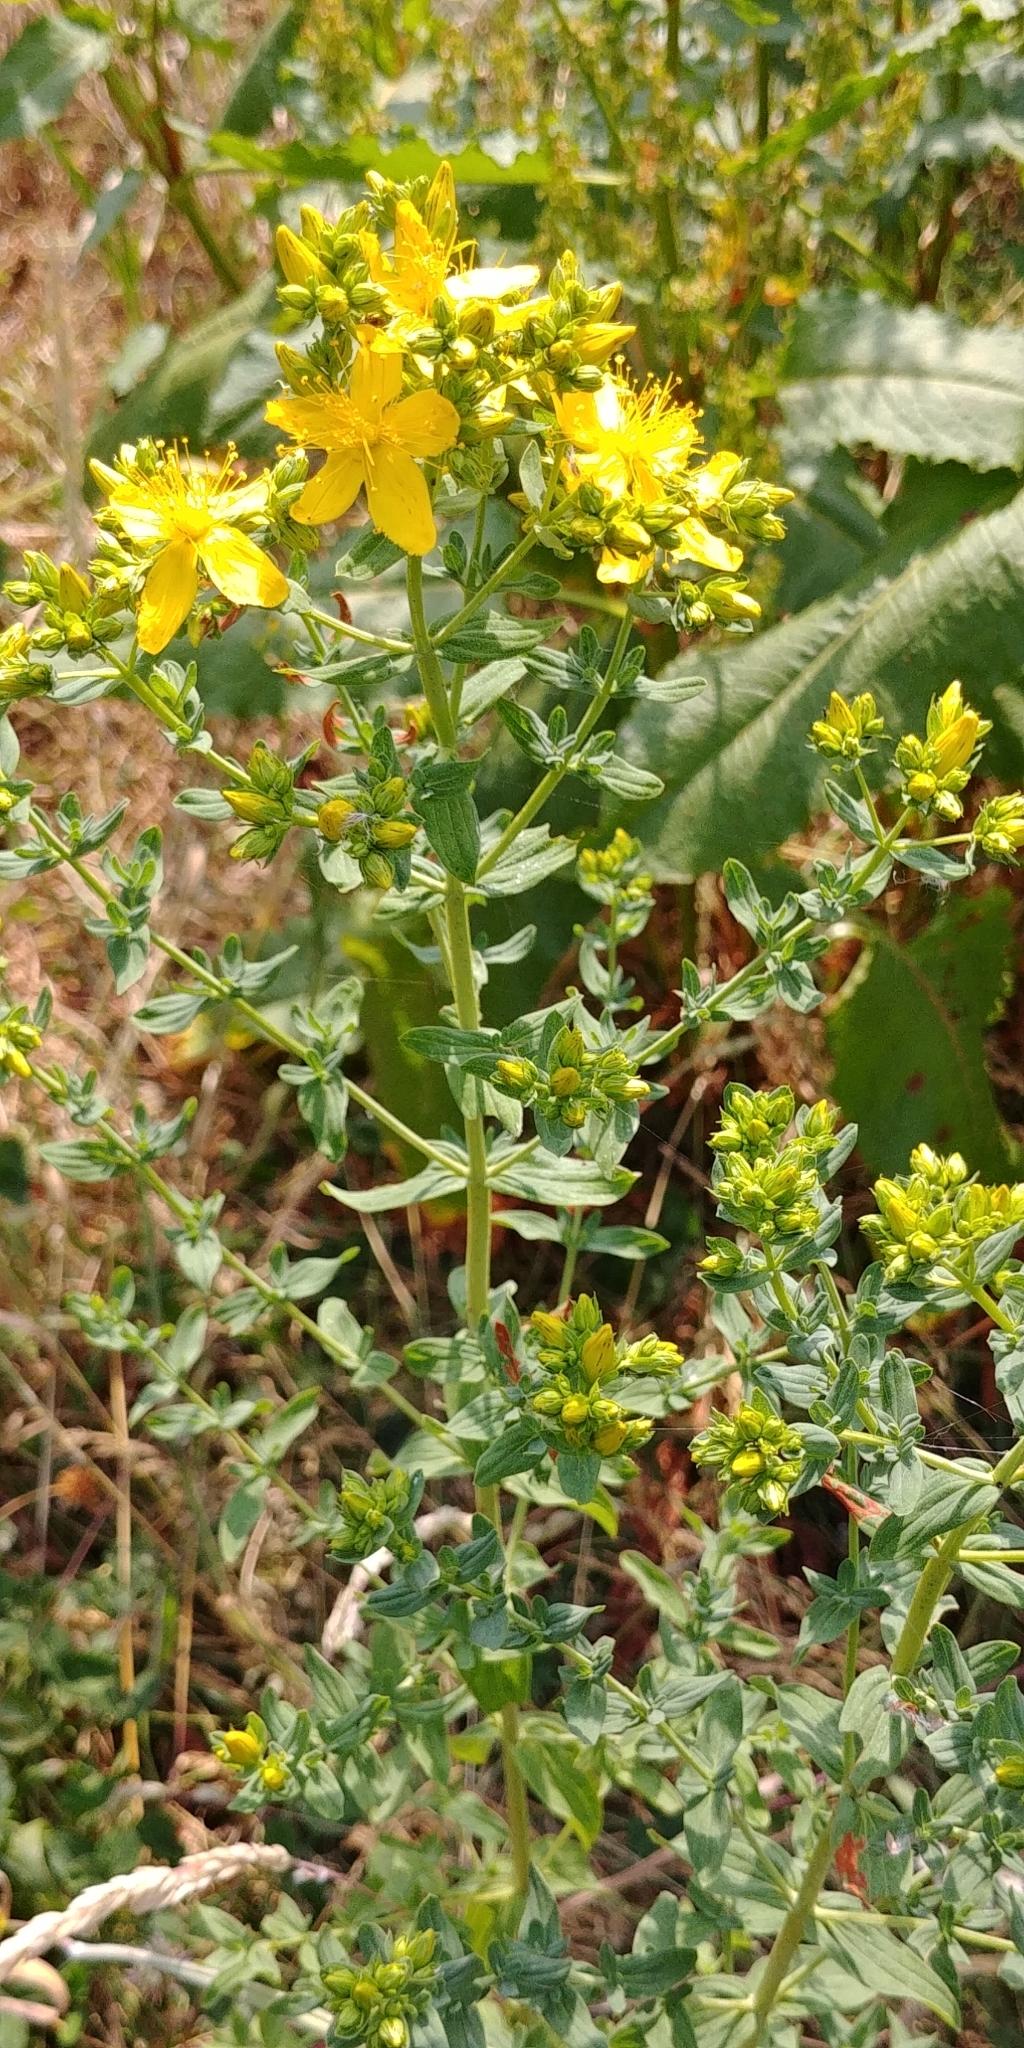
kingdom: Plantae
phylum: Tracheophyta
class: Magnoliopsida
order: Malpighiales
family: Hypericaceae
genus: Hypericum
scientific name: Hypericum perforatum
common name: Common st. johnswort
